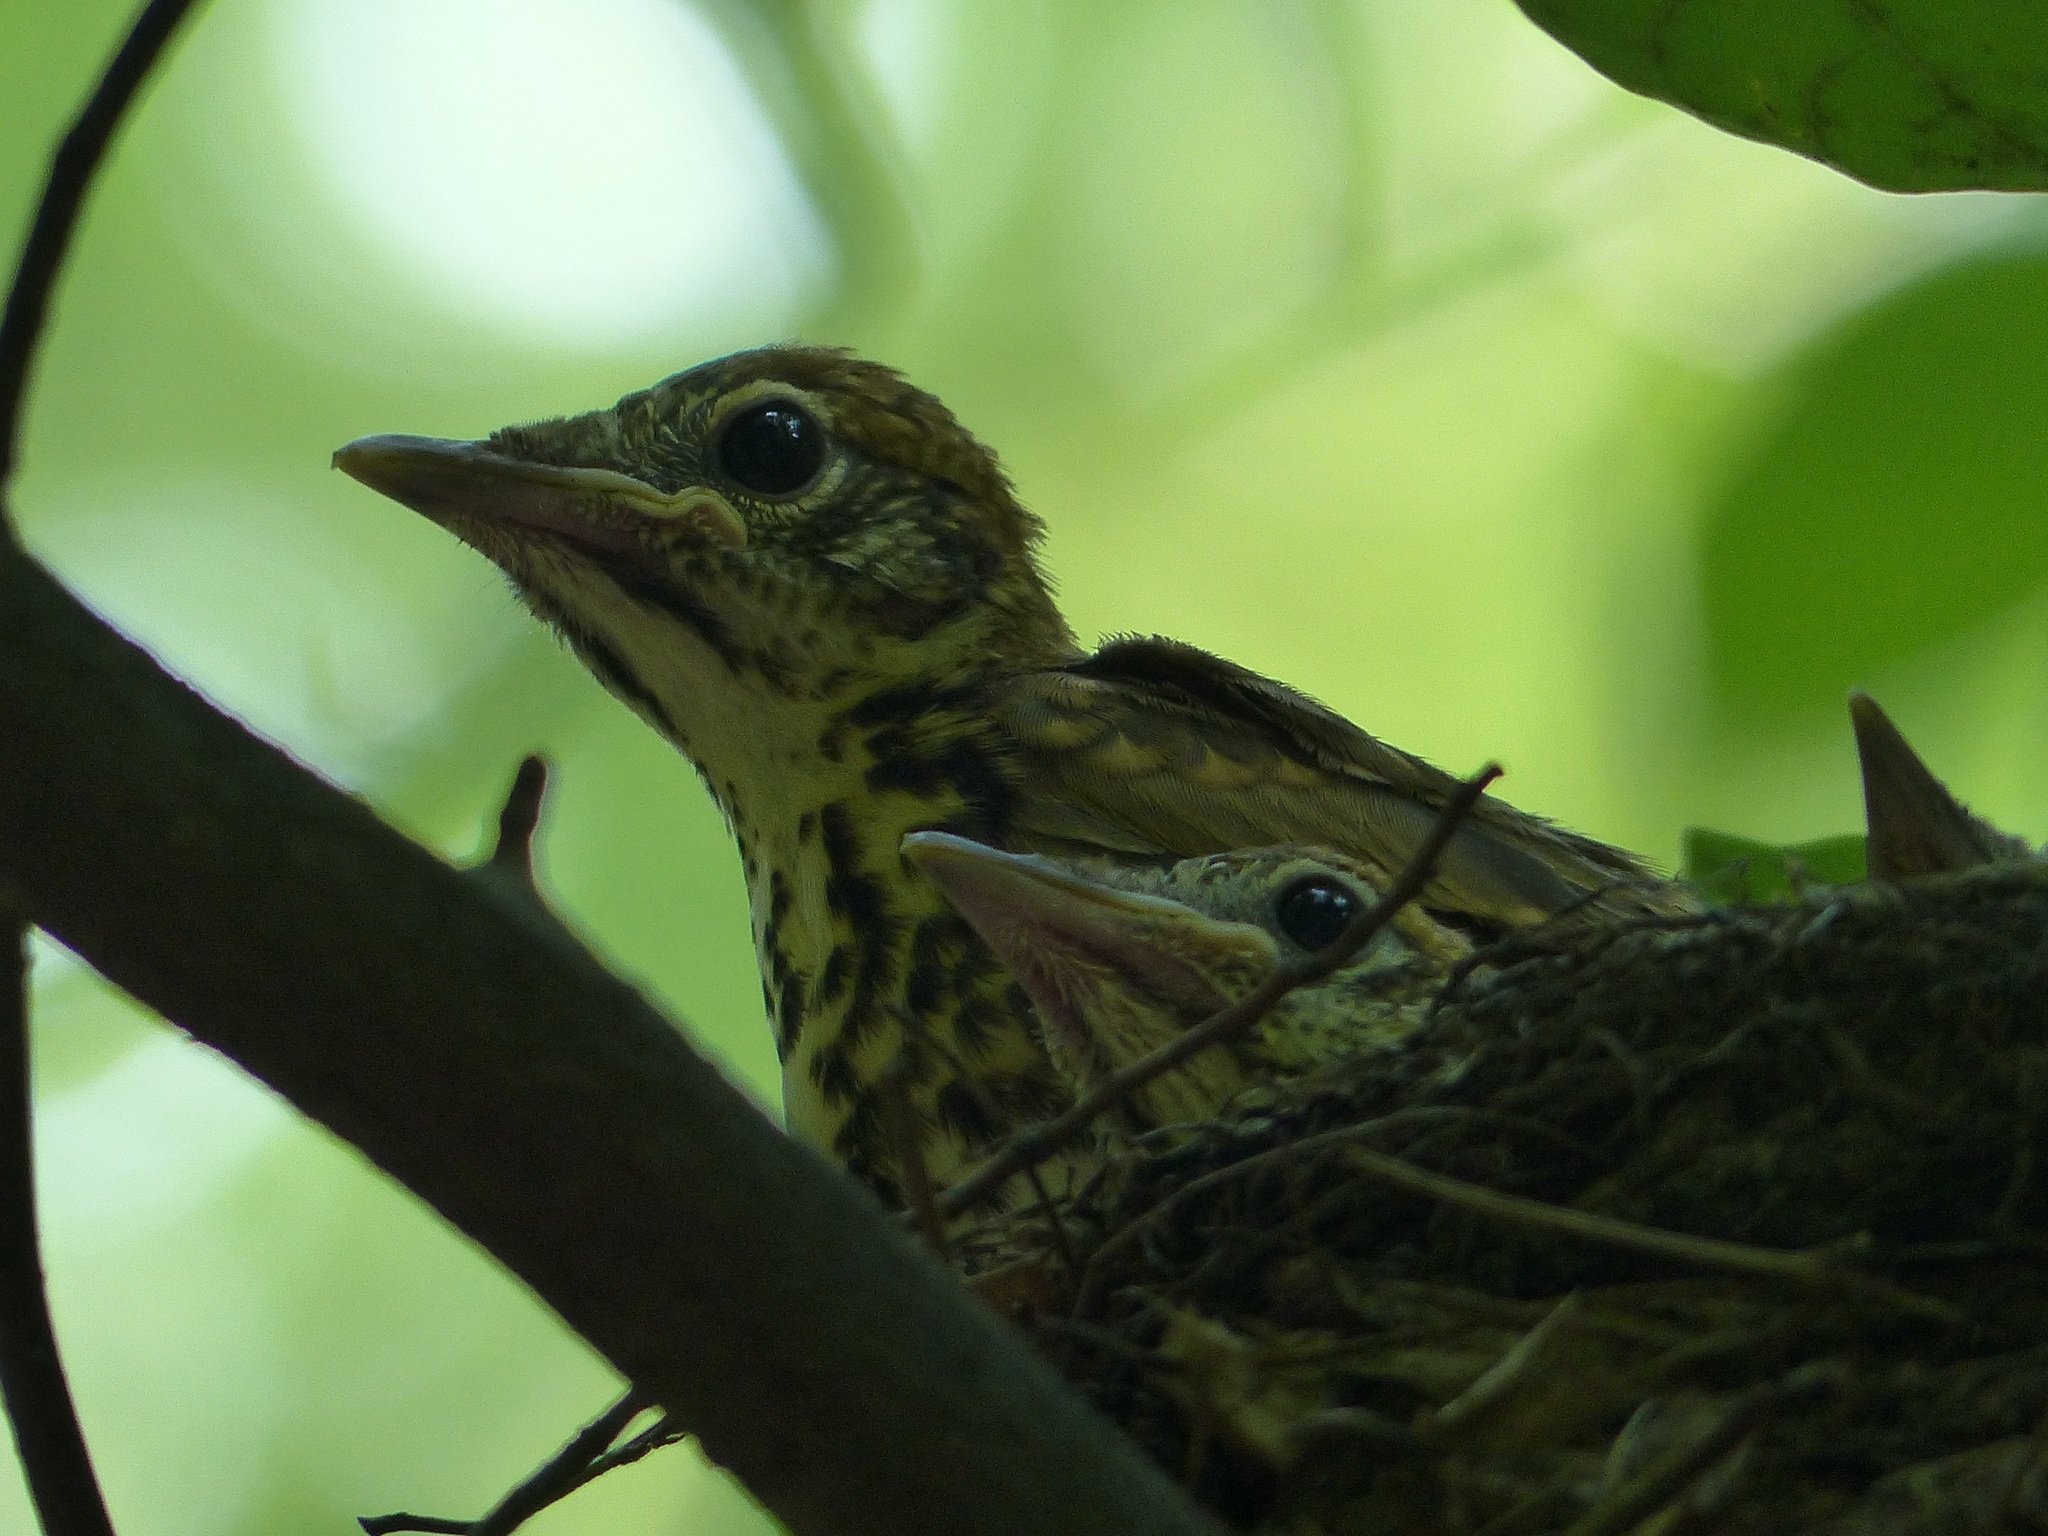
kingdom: Animalia
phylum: Chordata
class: Aves
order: Passeriformes
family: Turdidae
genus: Hylocichla
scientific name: Hylocichla mustelina
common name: Wood thrush
